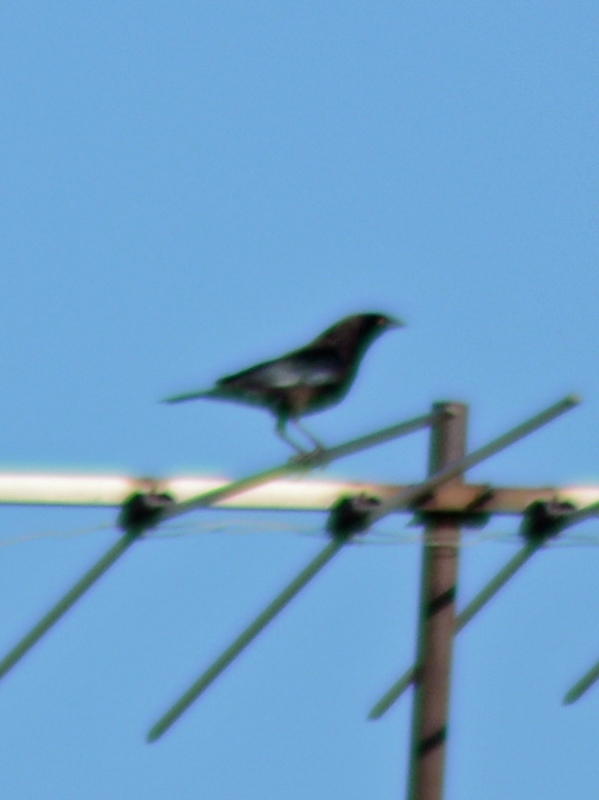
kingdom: Animalia
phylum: Chordata
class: Aves
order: Passeriformes
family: Icteridae
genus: Molothrus
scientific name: Molothrus aeneus
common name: Bronzed cowbird
